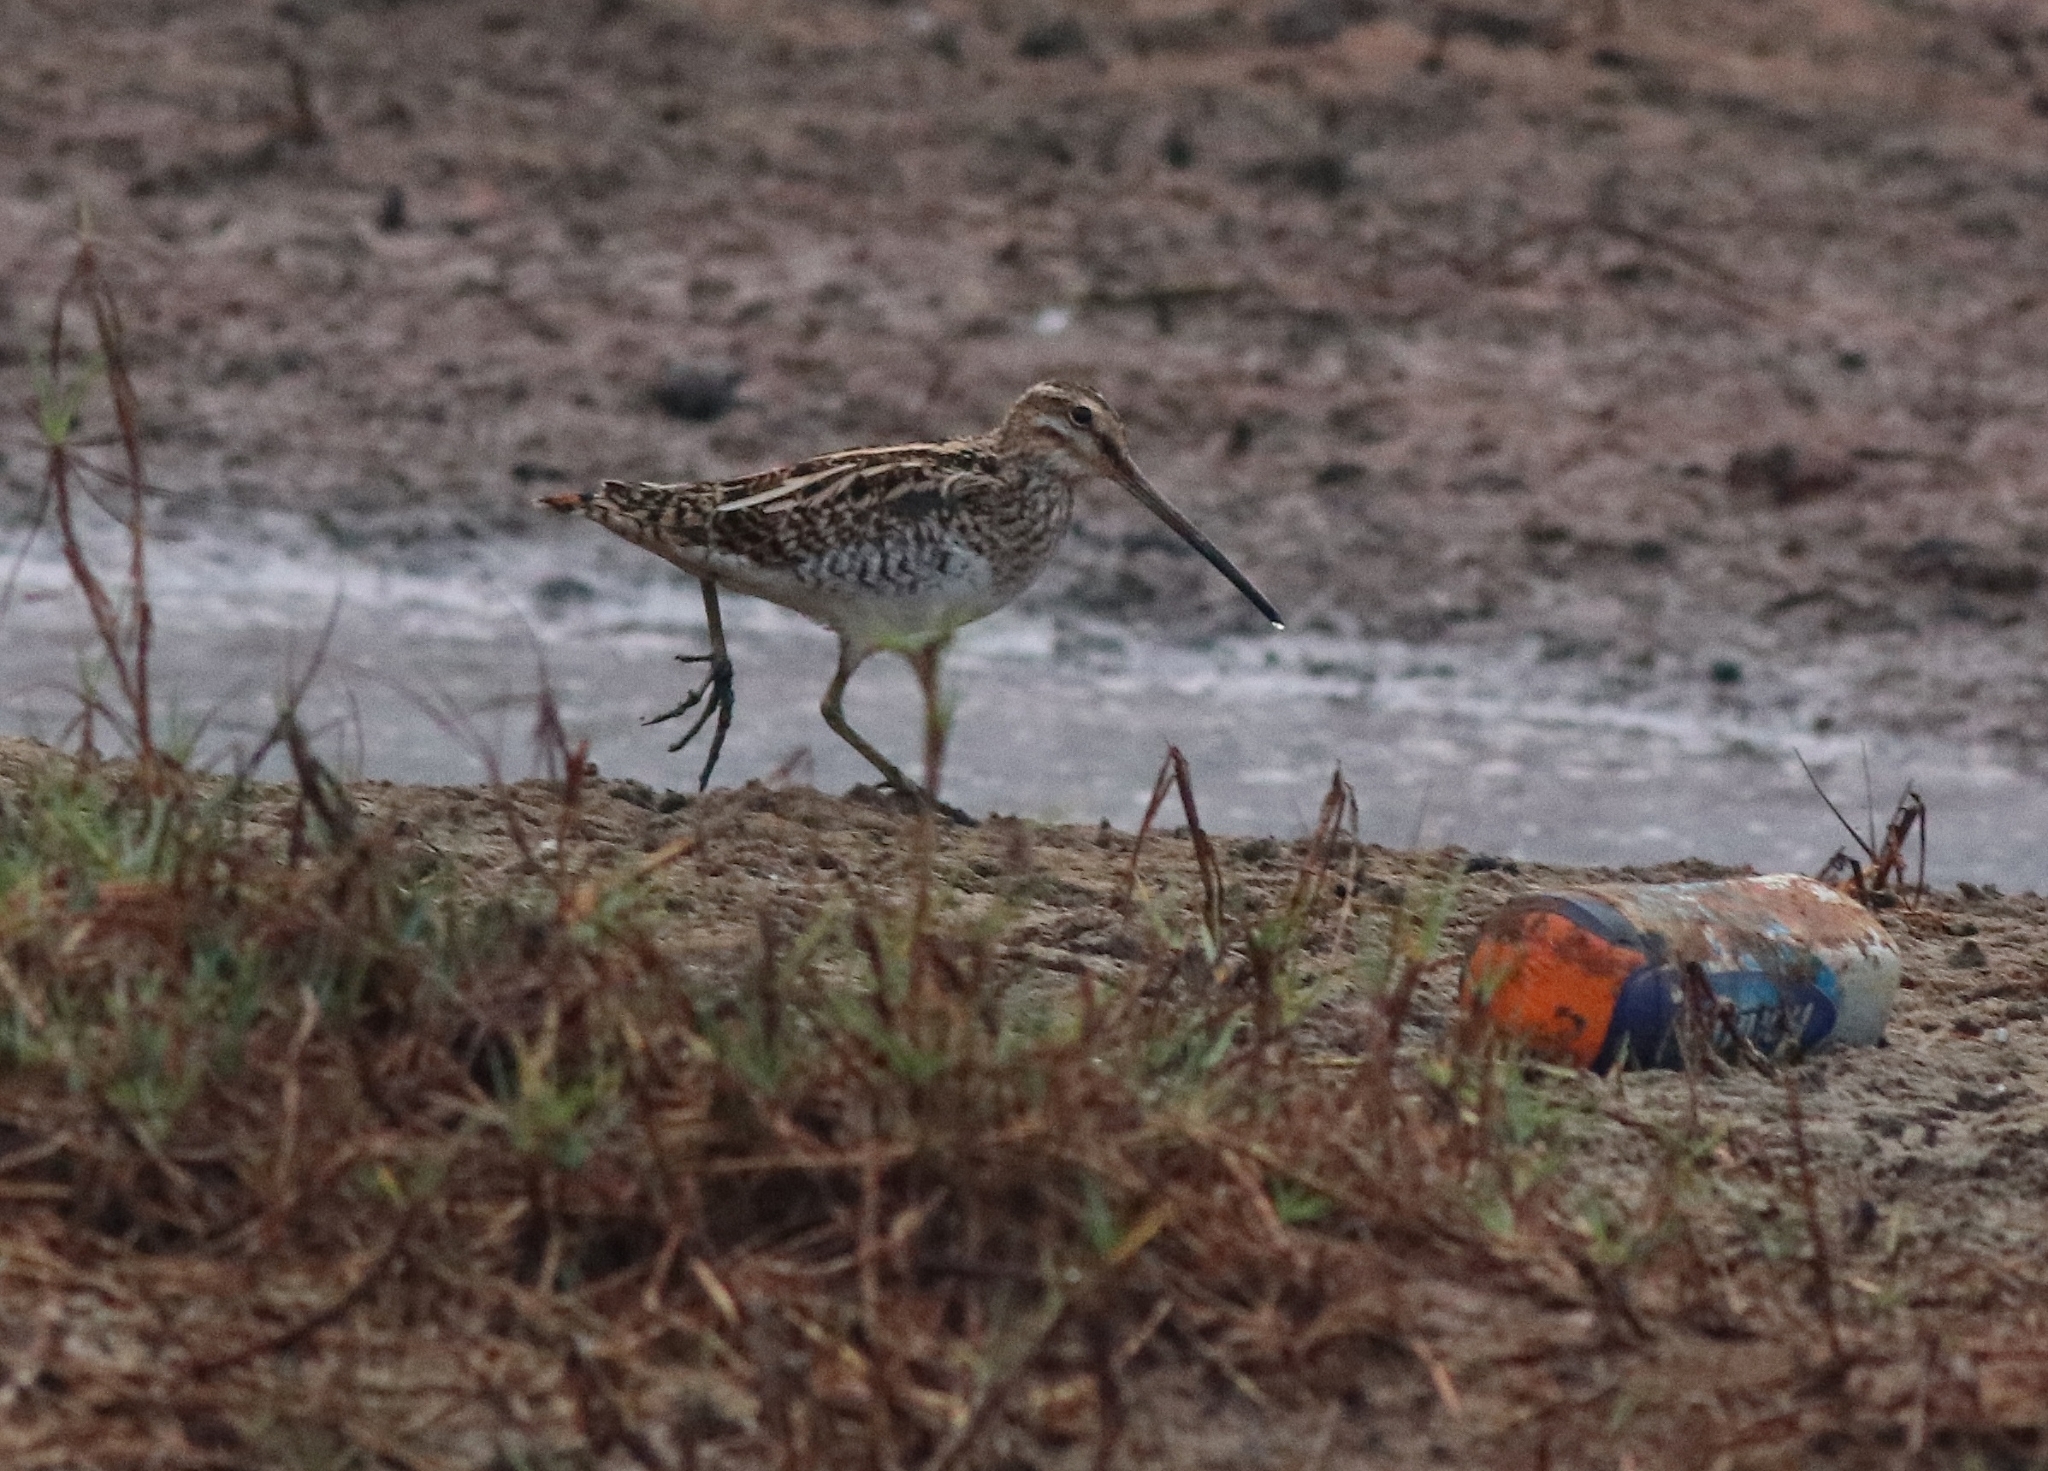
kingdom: Animalia
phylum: Chordata
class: Aves
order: Charadriiformes
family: Scolopacidae
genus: Gallinago
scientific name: Gallinago gallinago
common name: Common snipe
